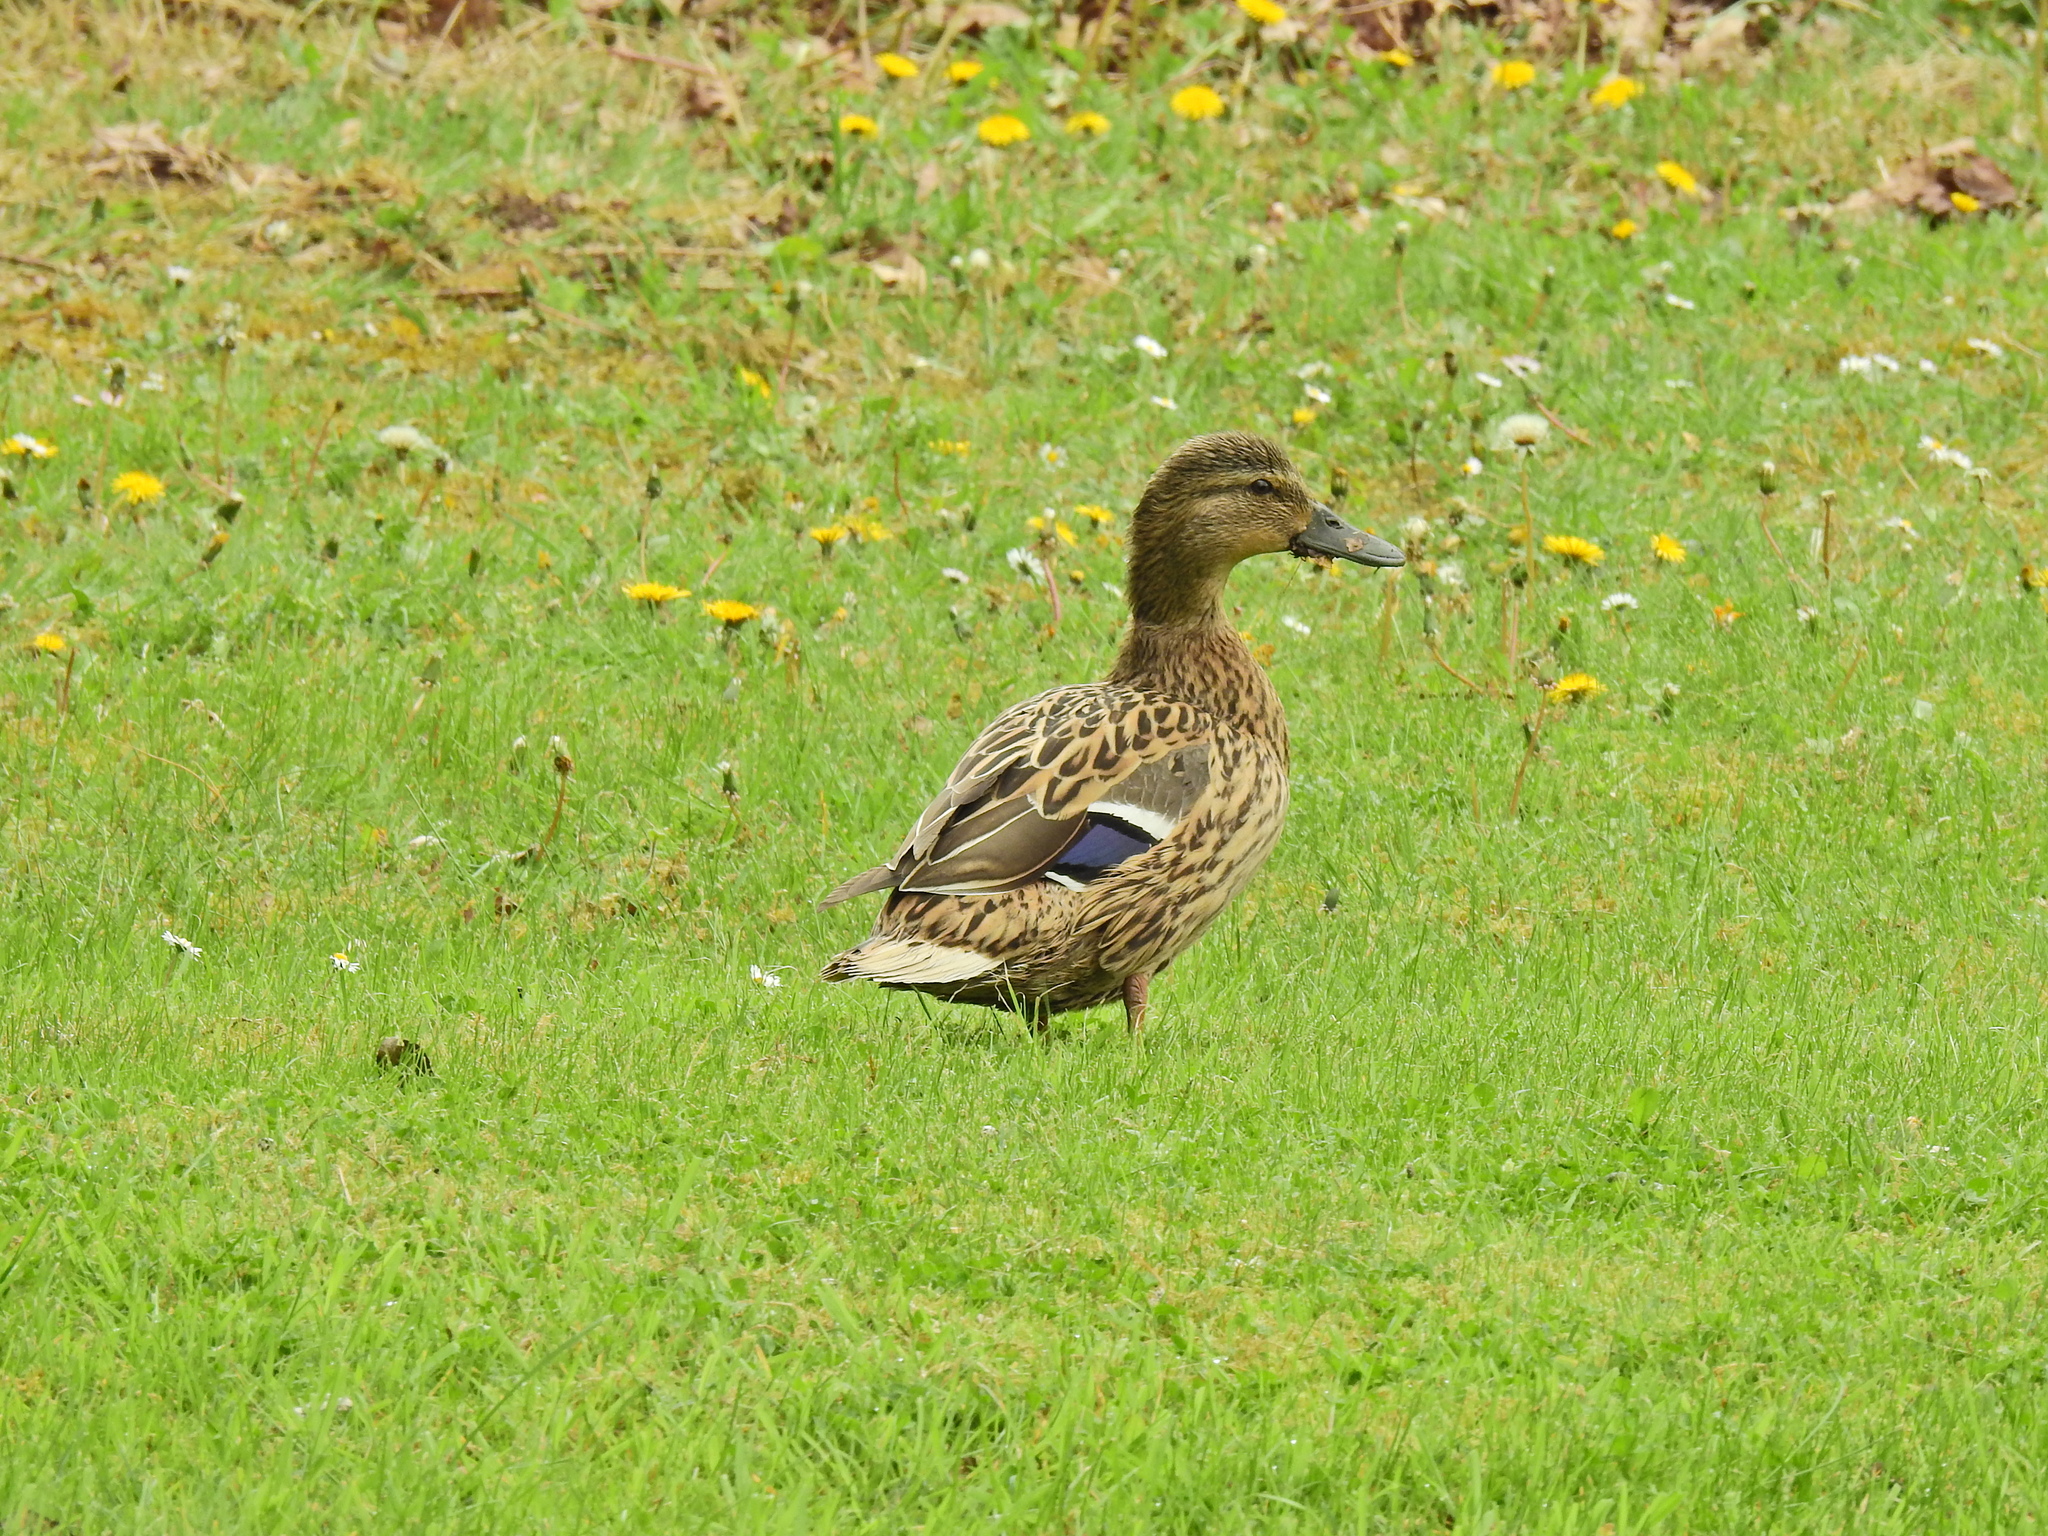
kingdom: Animalia
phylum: Chordata
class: Aves
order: Anseriformes
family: Anatidae
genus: Anas
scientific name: Anas platyrhynchos
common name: Mallard
